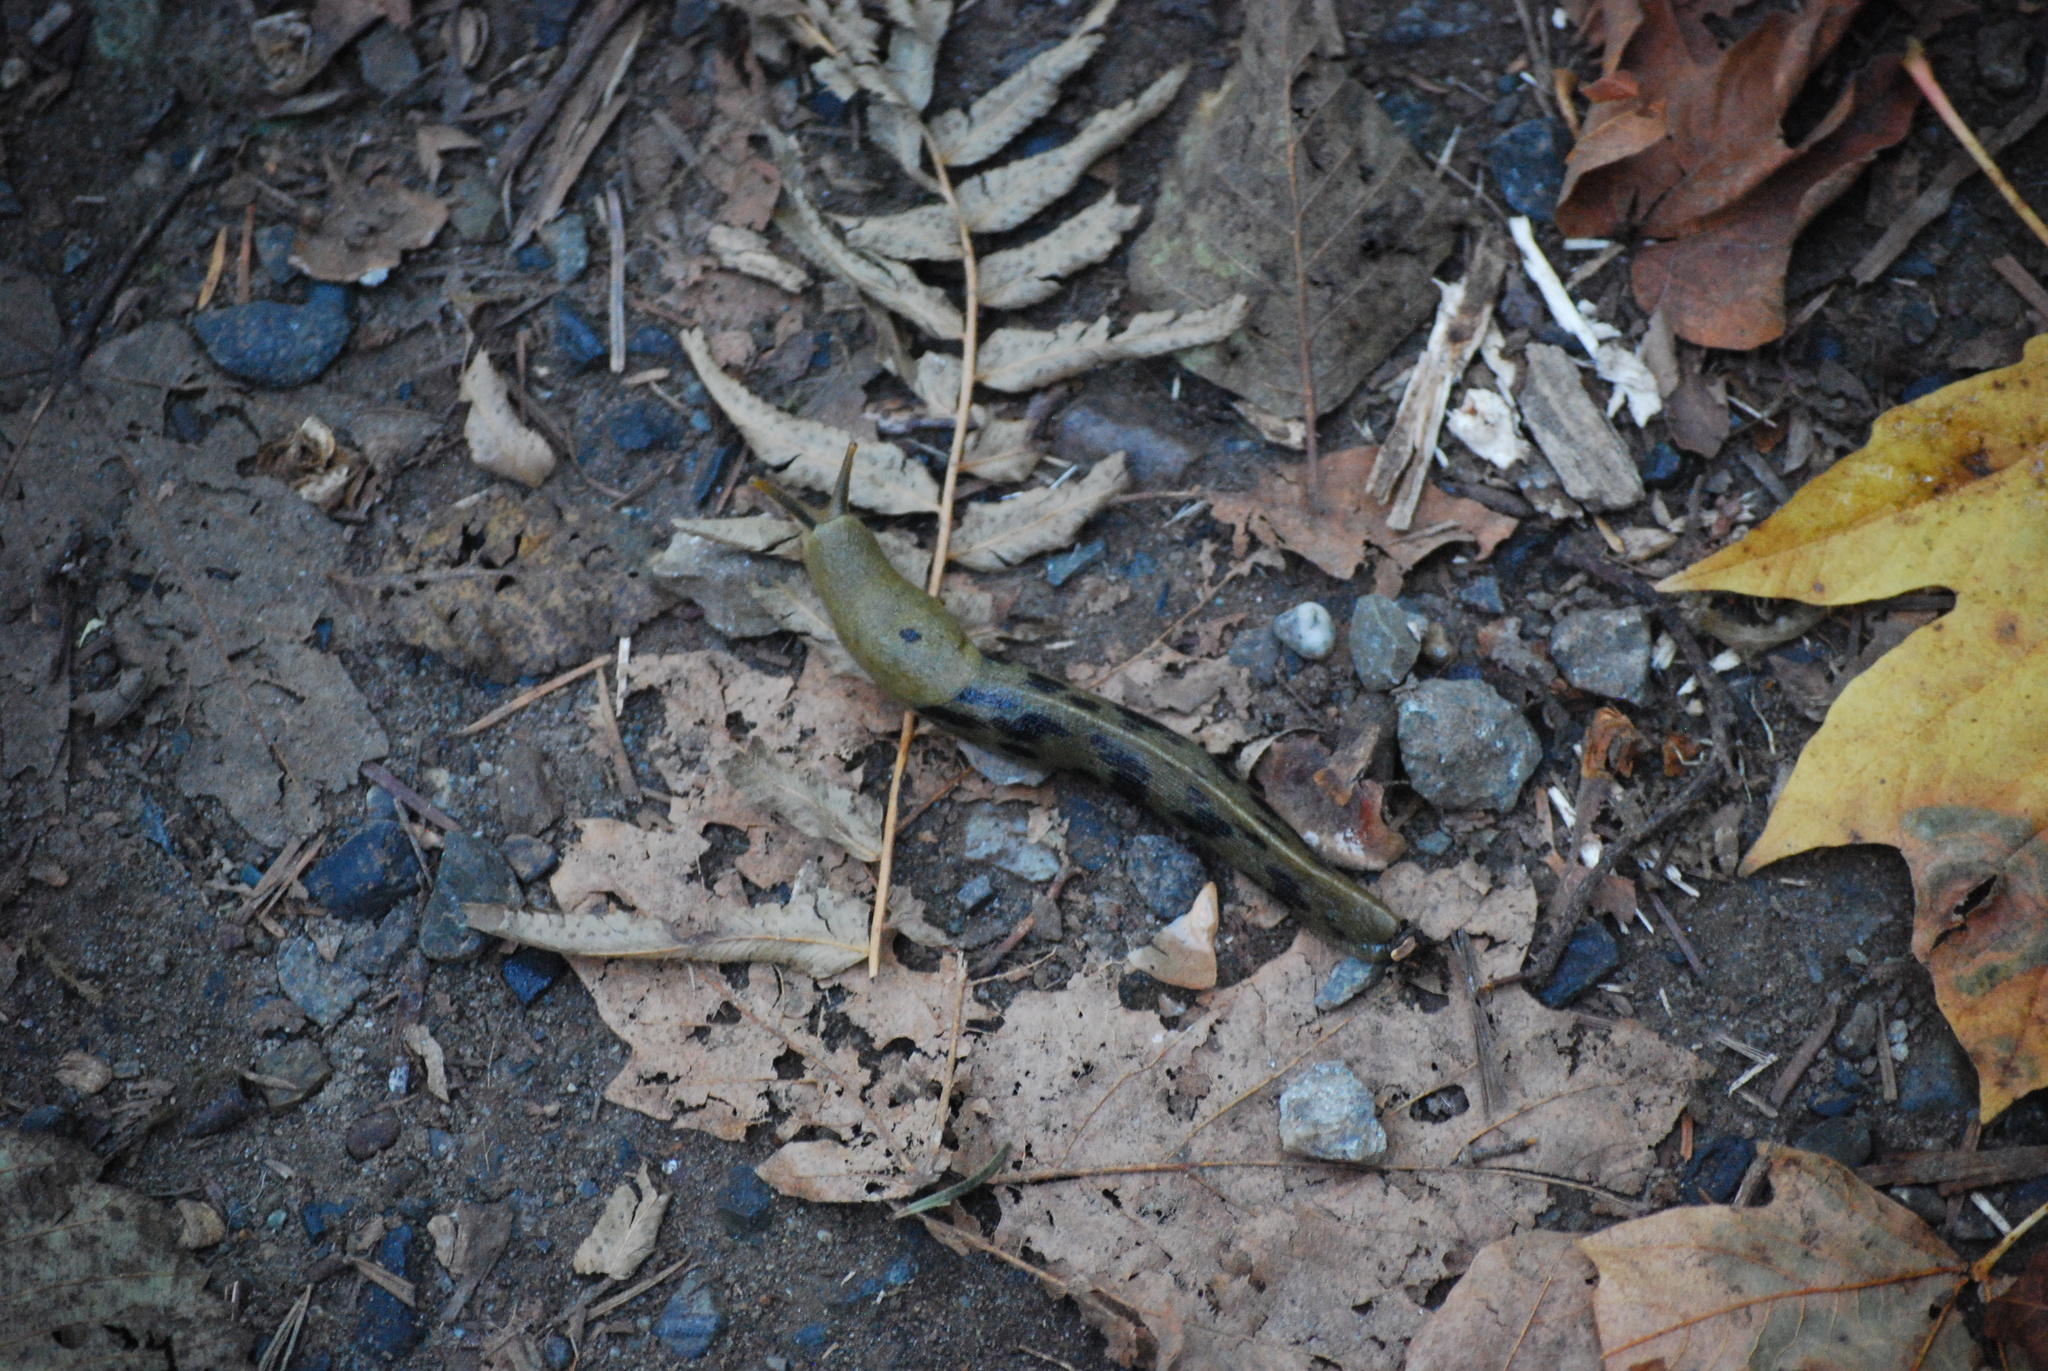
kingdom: Animalia
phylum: Mollusca
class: Gastropoda
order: Stylommatophora
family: Ariolimacidae
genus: Ariolimax
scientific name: Ariolimax columbianus
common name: Pacific banana slug
